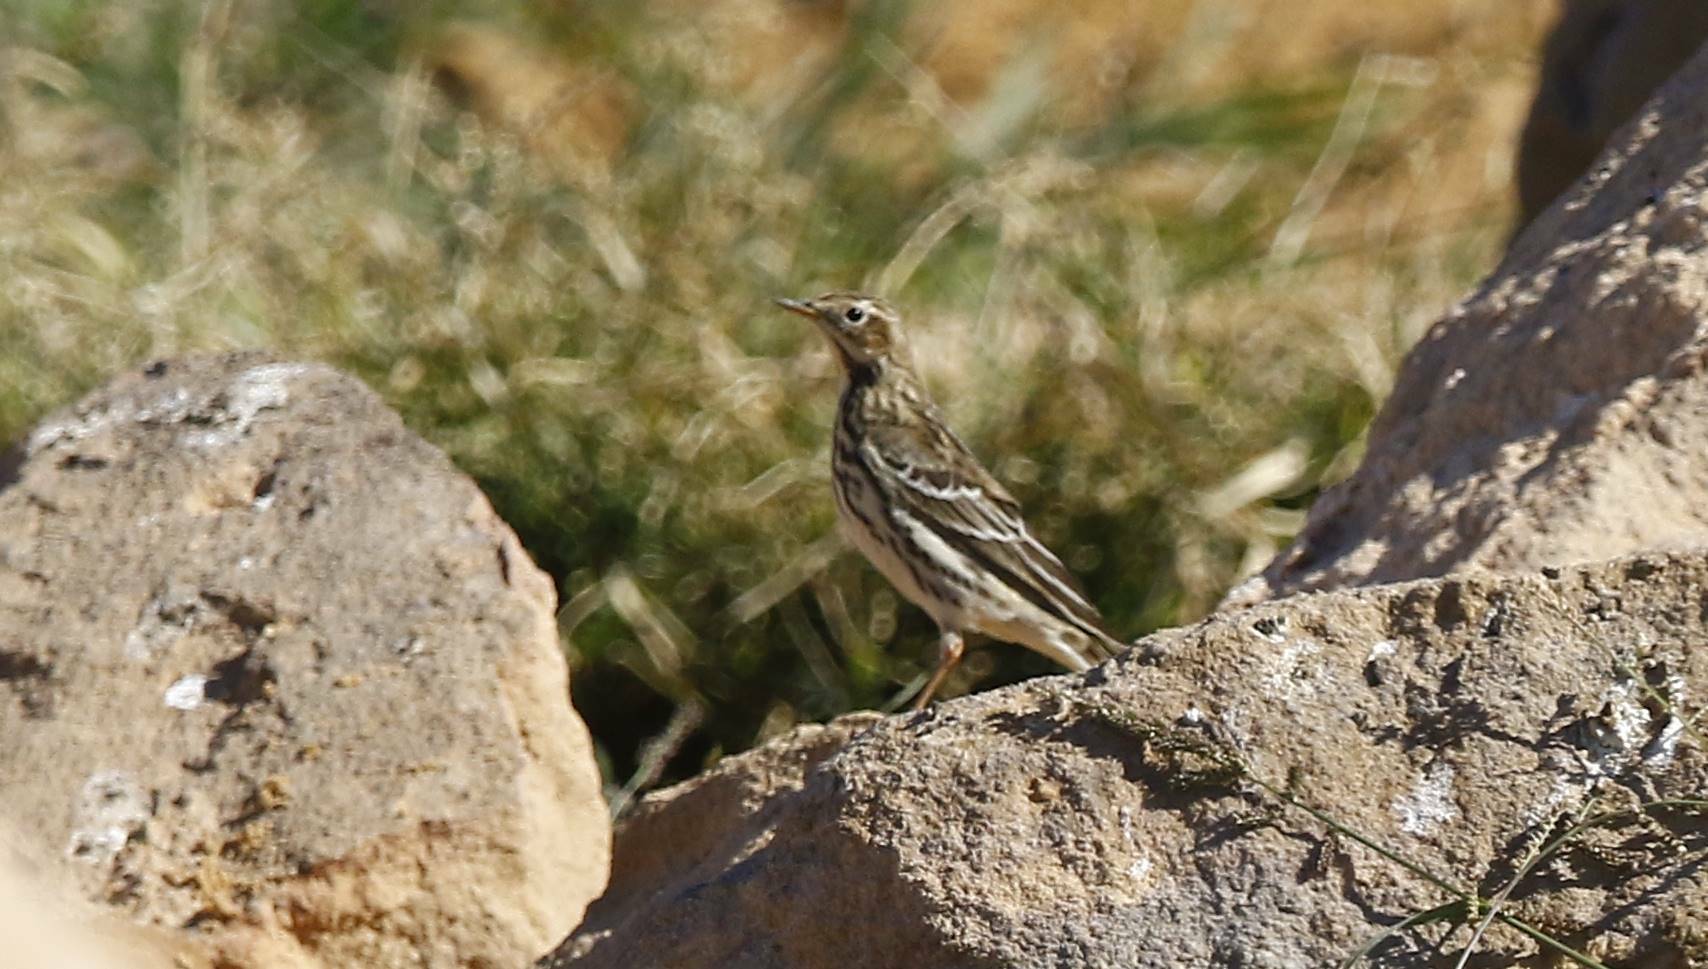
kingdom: Animalia
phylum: Chordata
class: Aves
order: Passeriformes
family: Motacillidae
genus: Anthus
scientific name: Anthus cervinus
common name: Red-throated pipit
